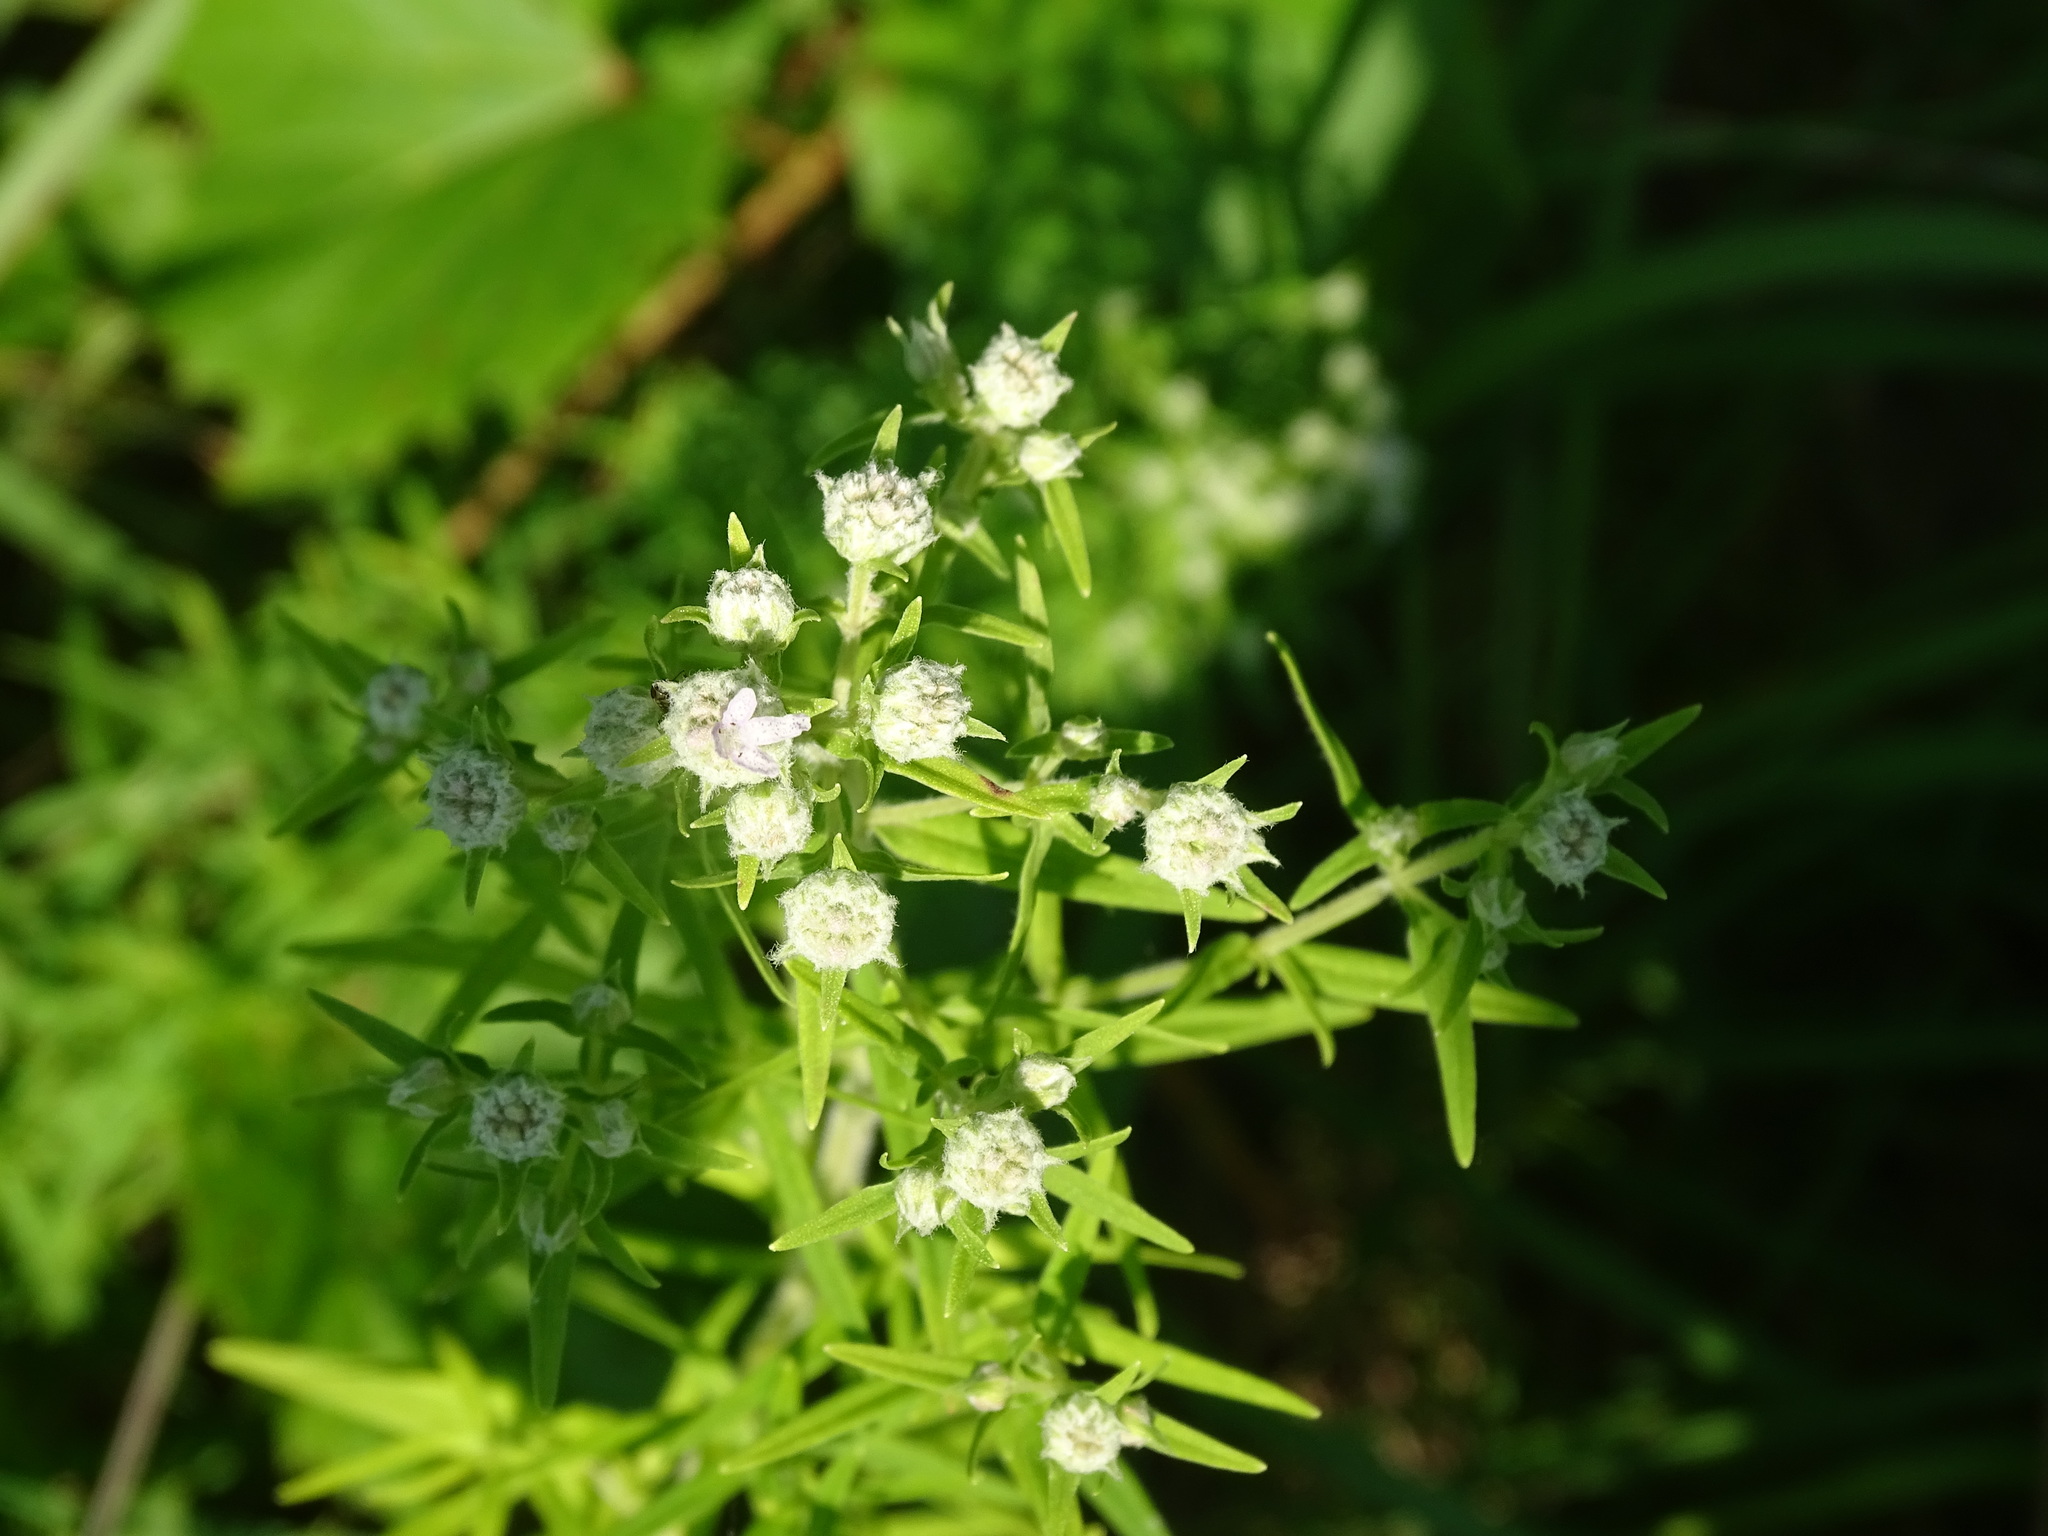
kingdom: Plantae
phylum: Tracheophyta
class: Magnoliopsida
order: Lamiales
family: Lamiaceae
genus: Pycnanthemum
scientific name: Pycnanthemum virginianum
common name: Virginia mountain-mint
